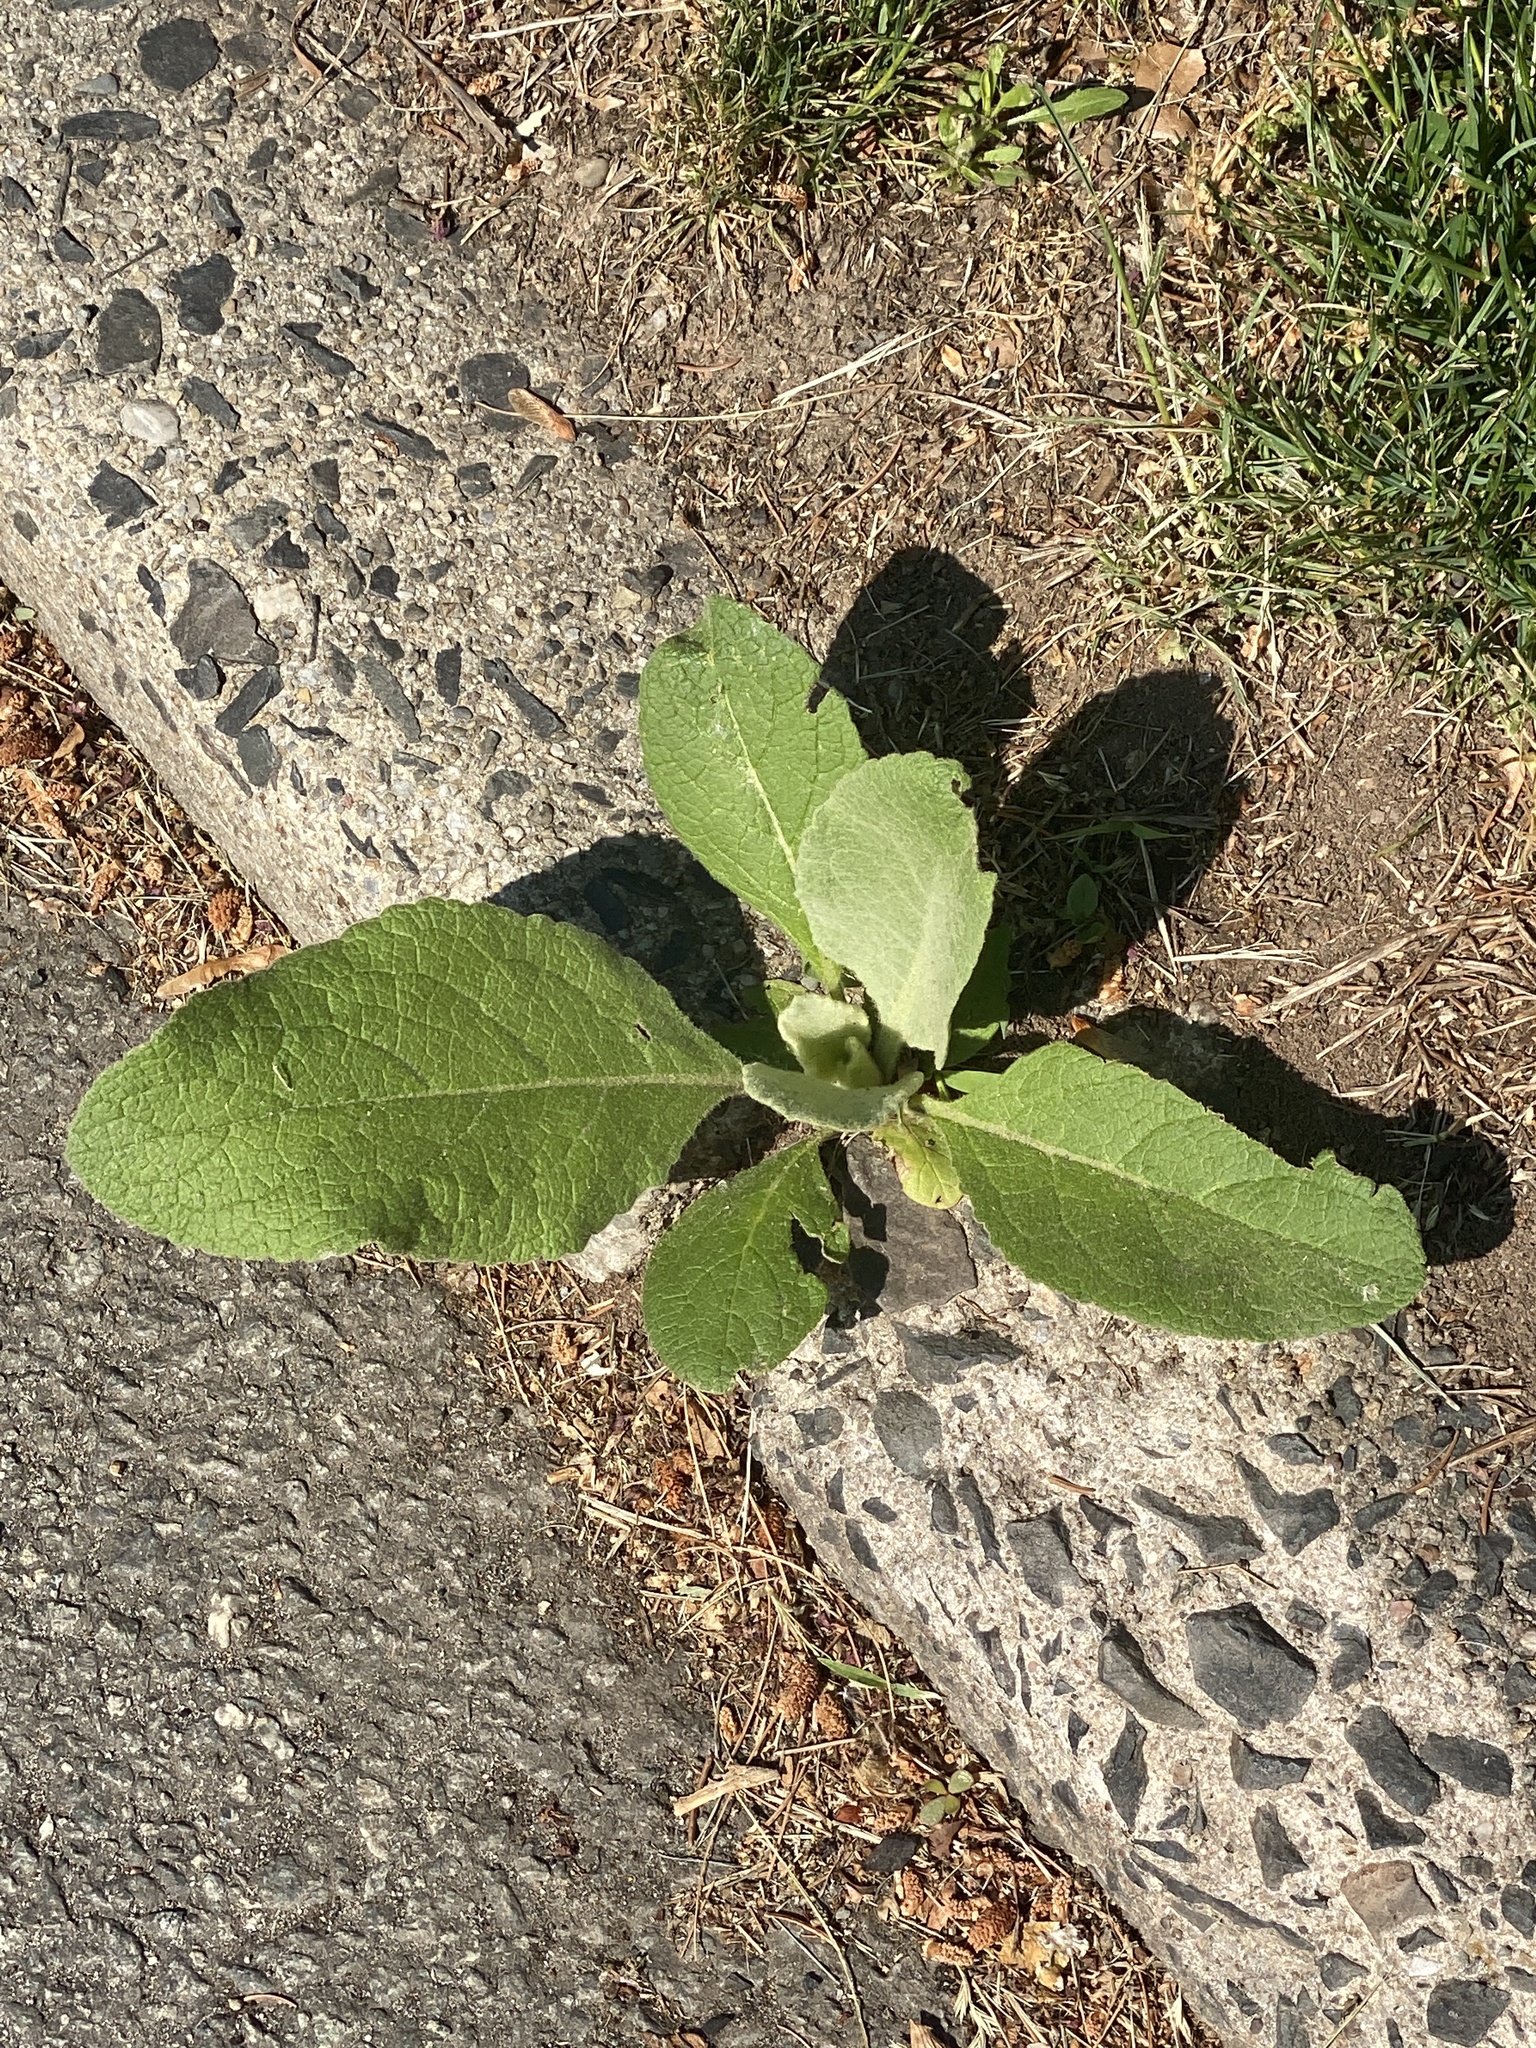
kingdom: Plantae
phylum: Tracheophyta
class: Magnoliopsida
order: Lamiales
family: Scrophulariaceae
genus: Verbascum
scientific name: Verbascum thapsus
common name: Common mullein
